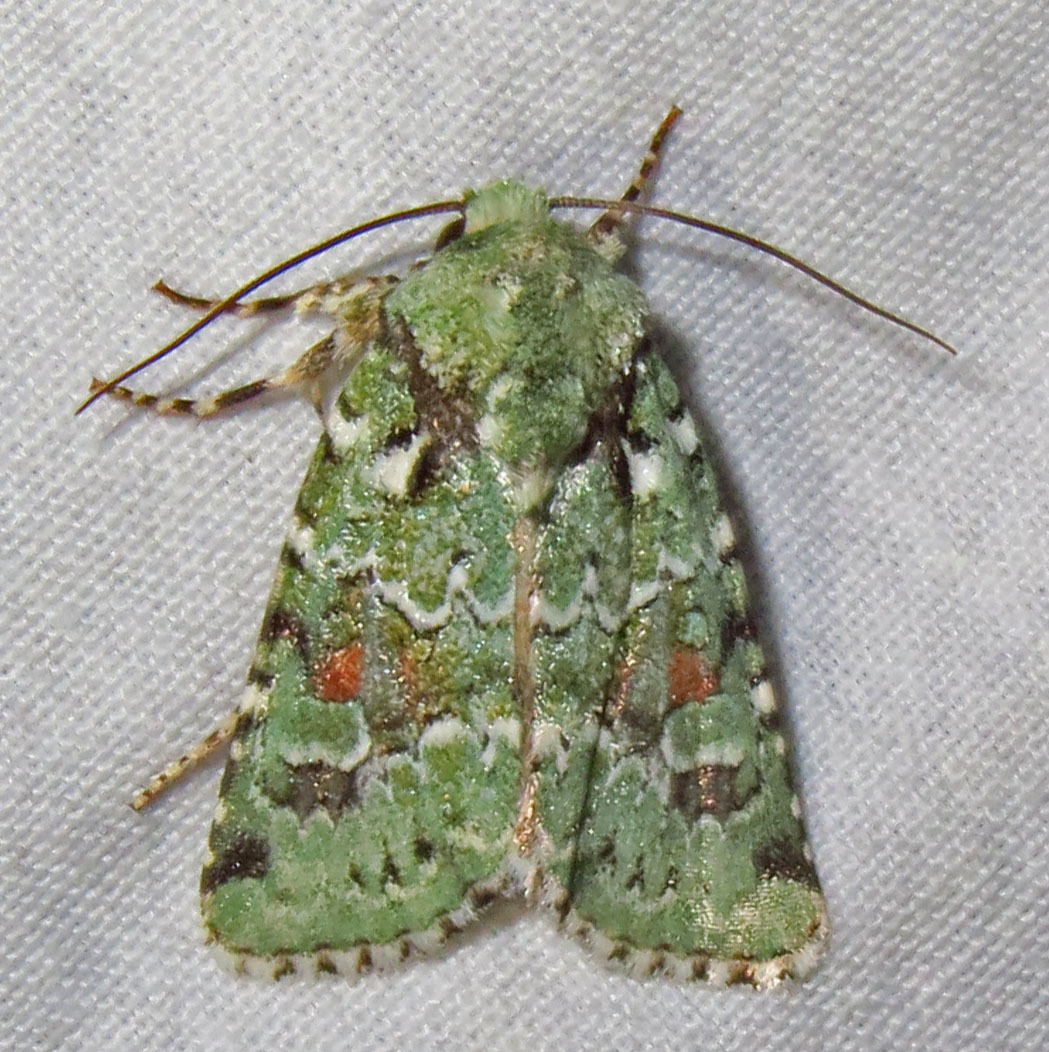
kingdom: Animalia
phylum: Arthropoda
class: Insecta
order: Lepidoptera
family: Noctuidae
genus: Lacinipolia
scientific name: Lacinipolia laudabilis
